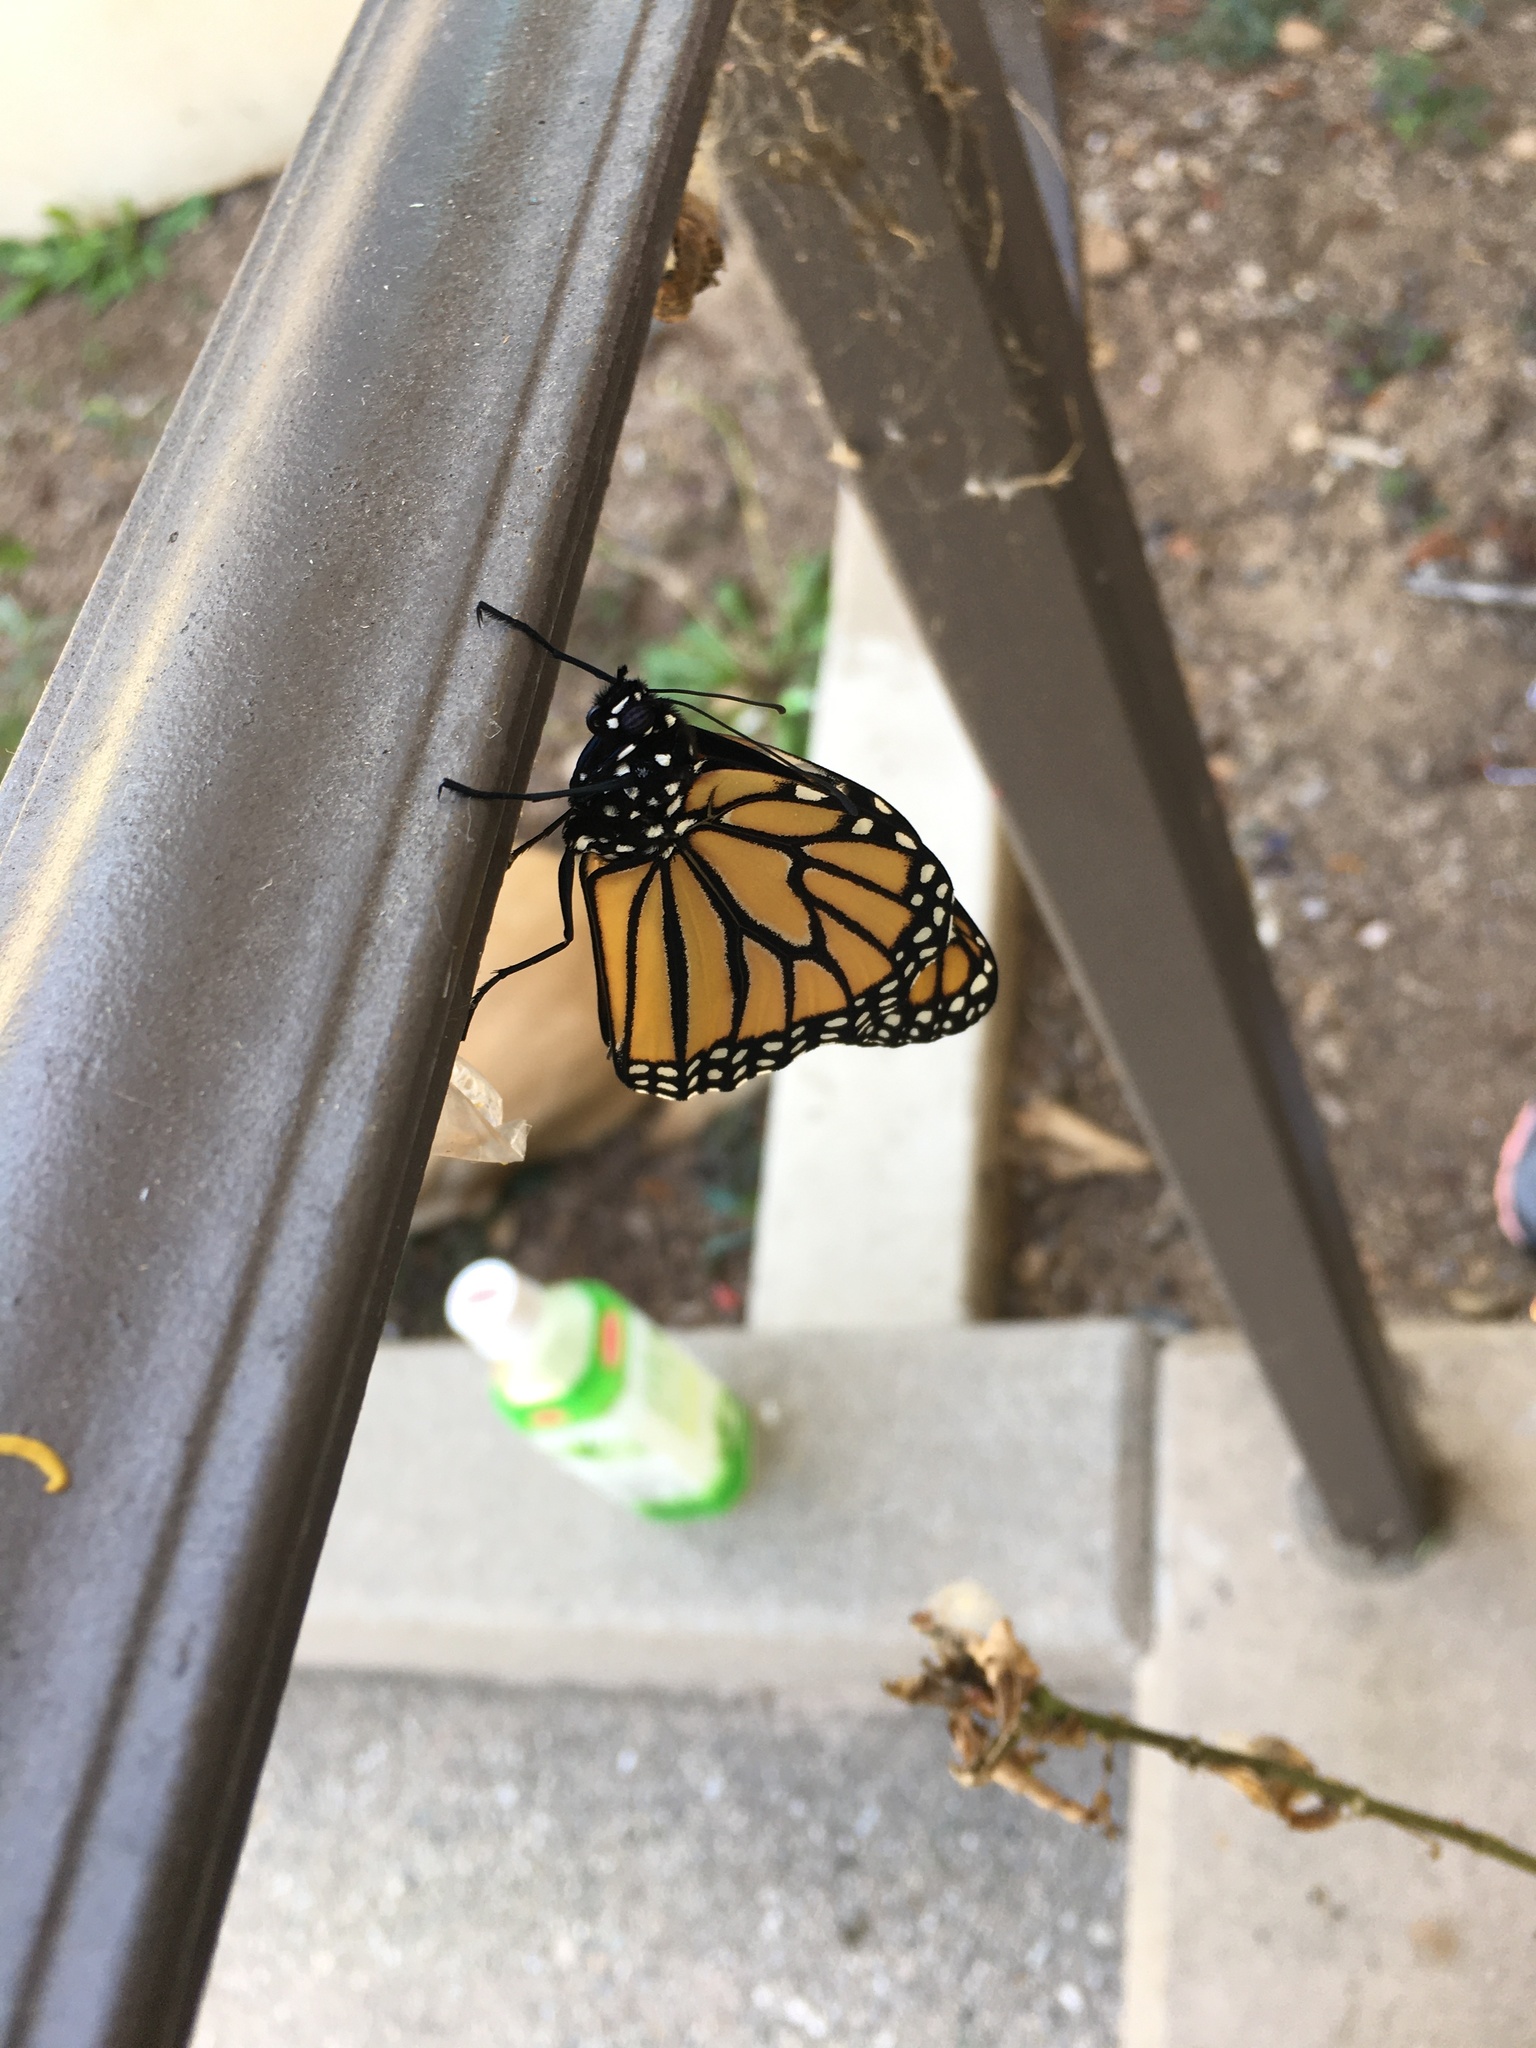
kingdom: Animalia
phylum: Arthropoda
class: Insecta
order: Lepidoptera
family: Nymphalidae
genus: Danaus
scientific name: Danaus plexippus
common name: Monarch
